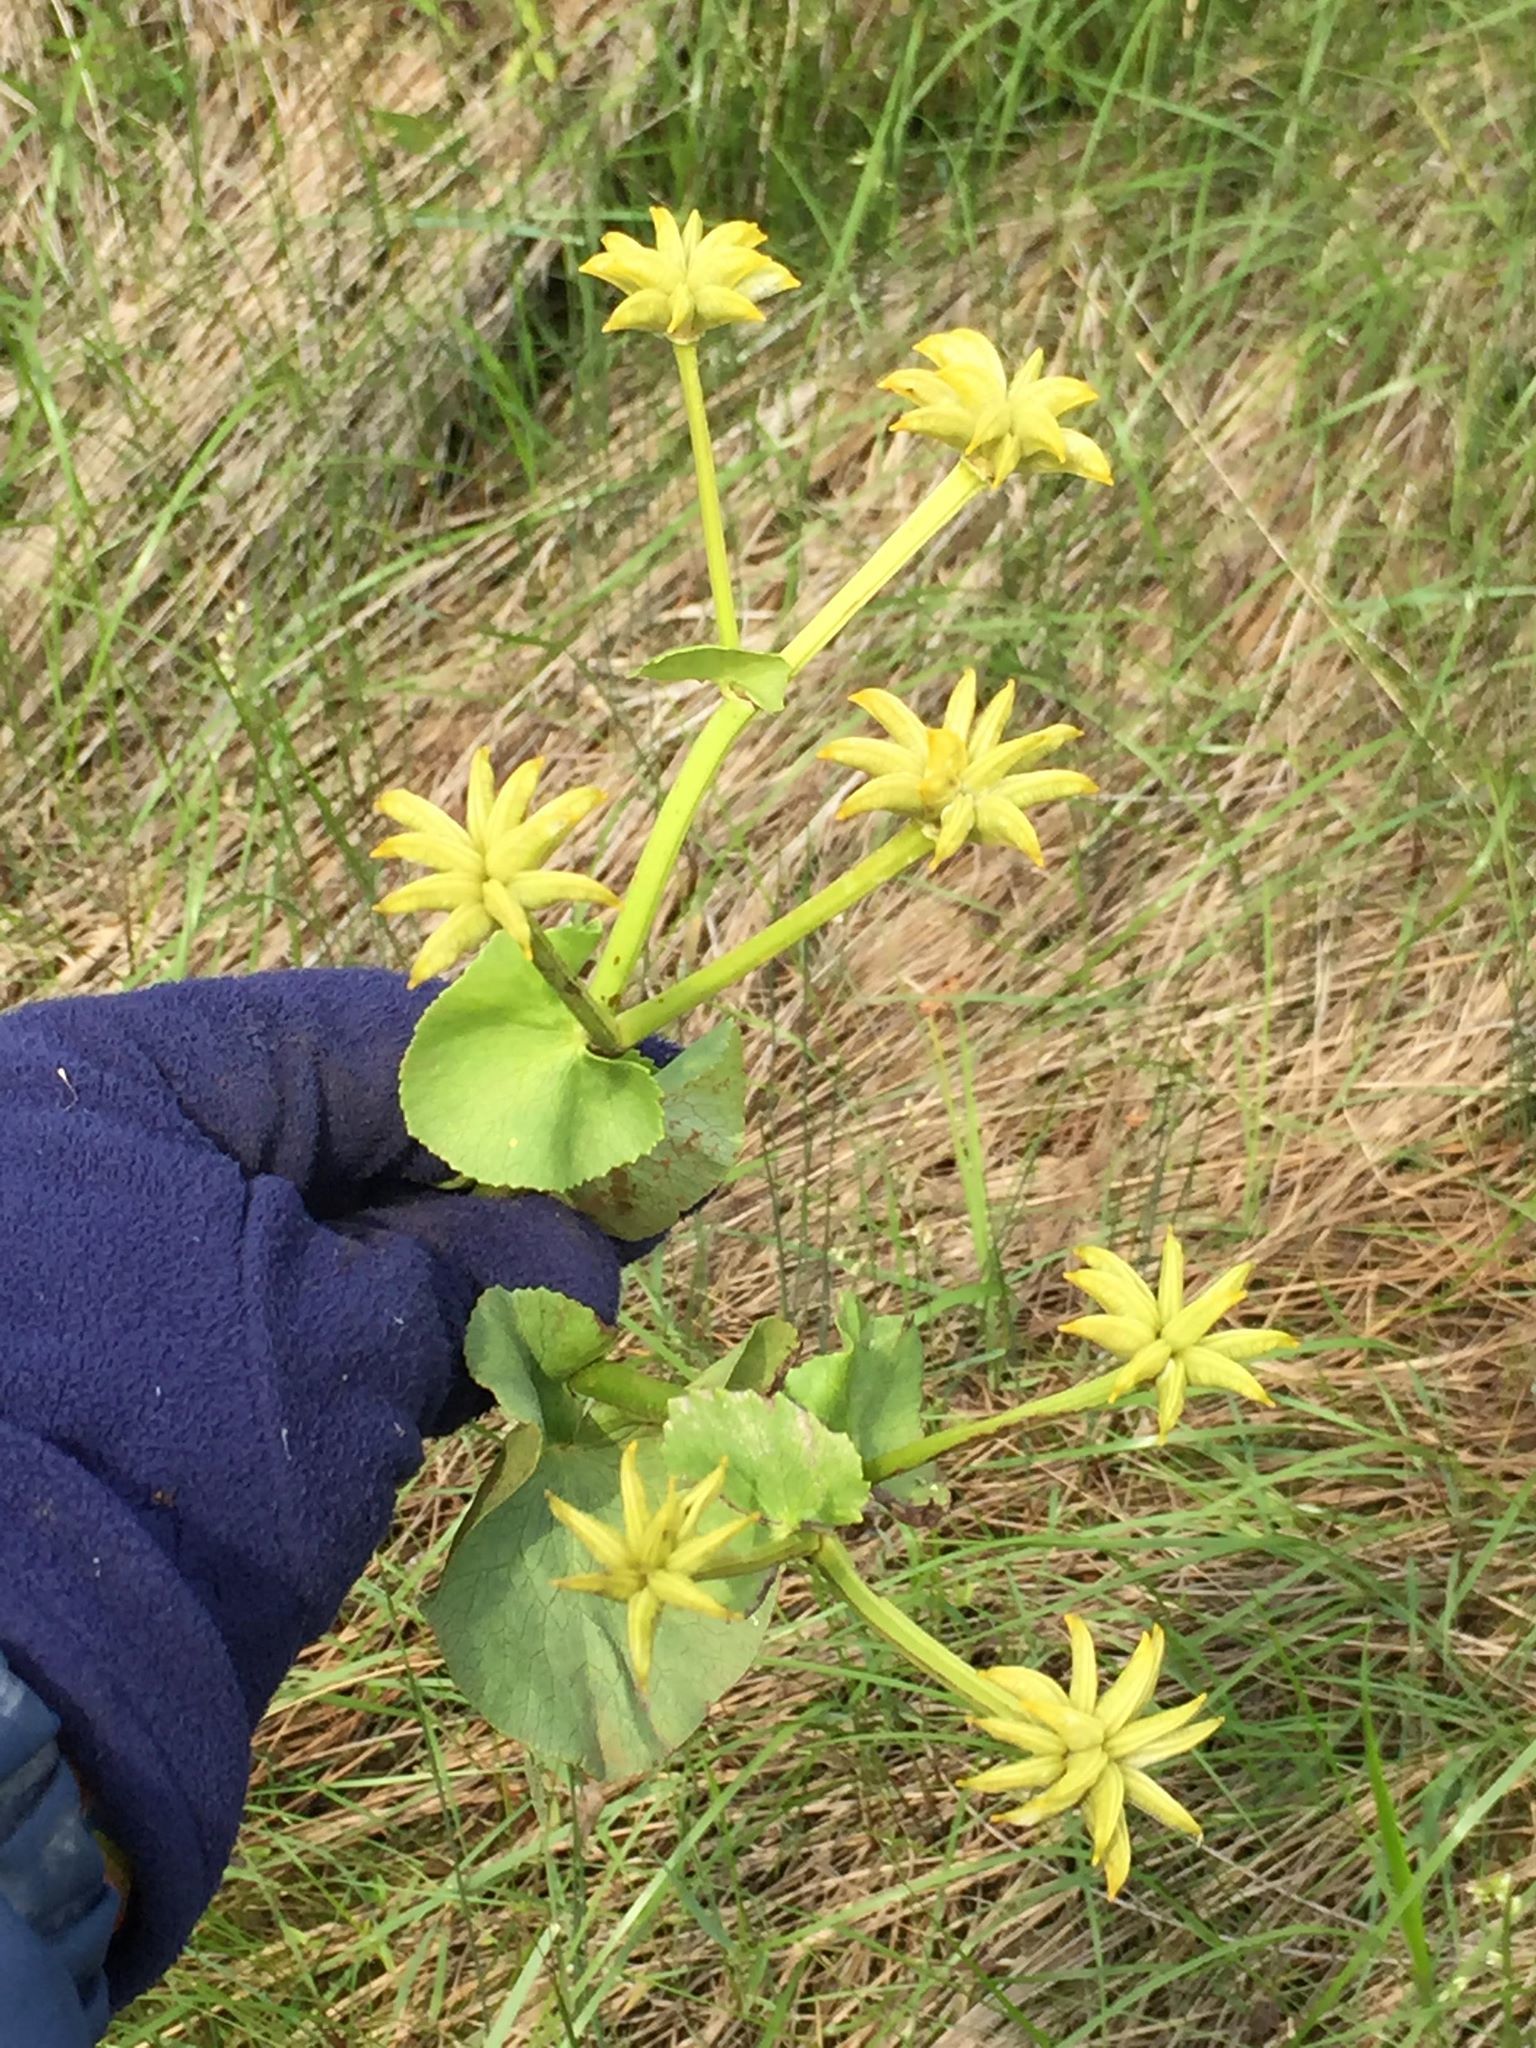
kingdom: Plantae
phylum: Tracheophyta
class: Magnoliopsida
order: Ranunculales
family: Ranunculaceae
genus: Caltha
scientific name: Caltha palustris
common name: Marsh marigold
